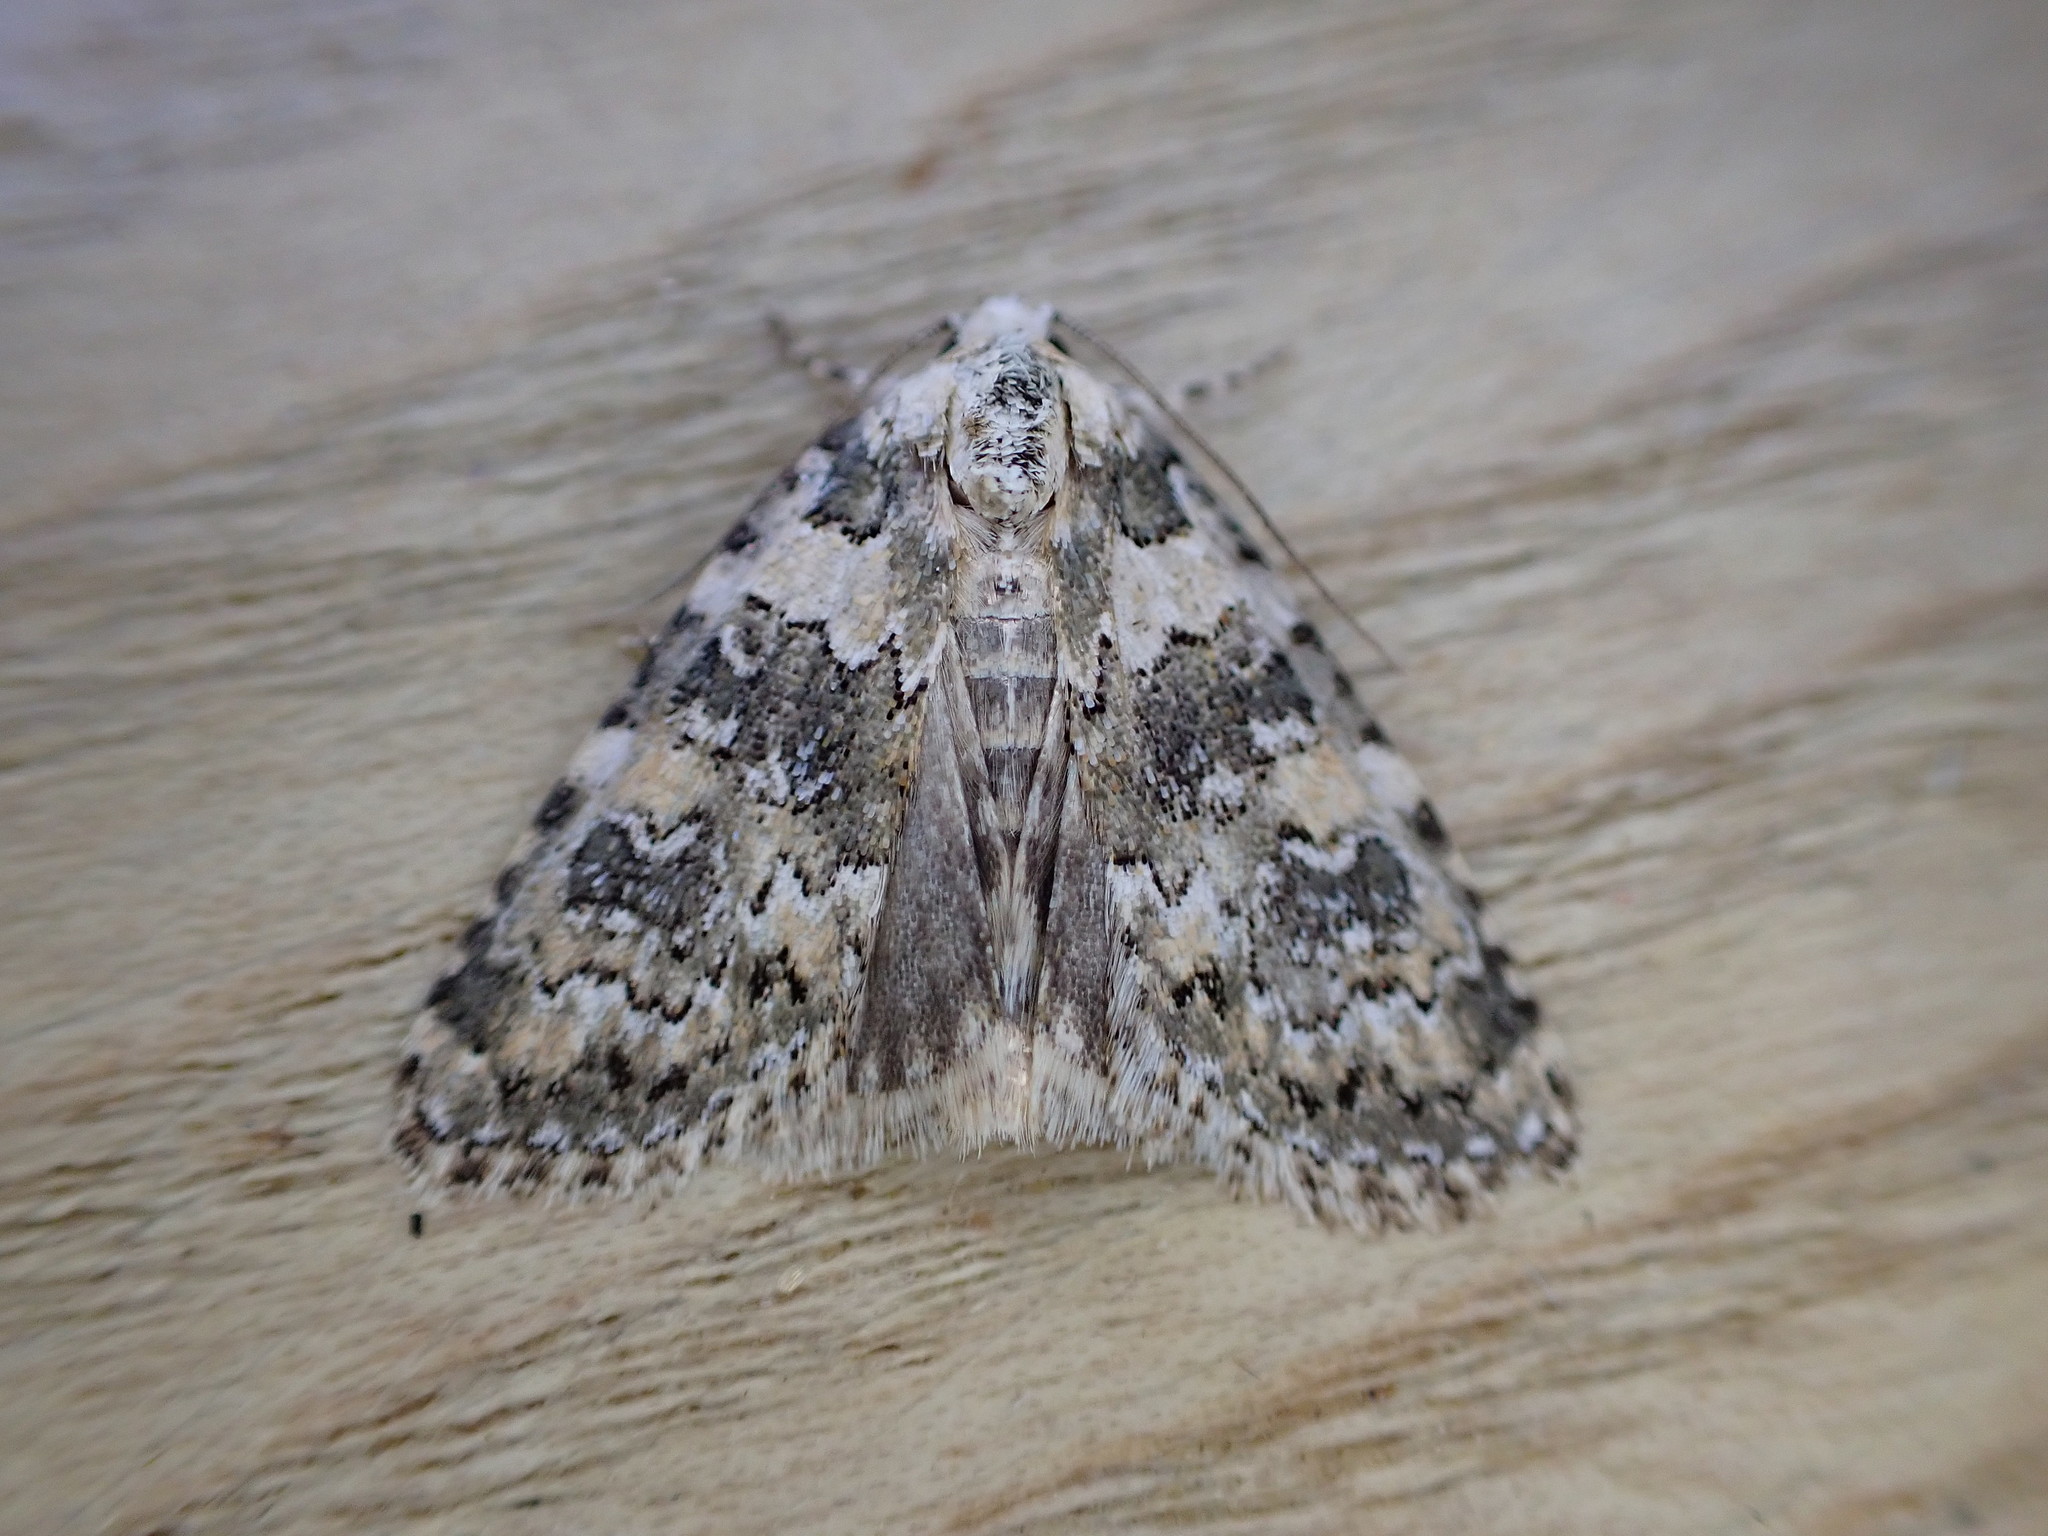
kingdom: Animalia
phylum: Arthropoda
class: Insecta
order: Lepidoptera
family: Noctuidae
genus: Bryophila
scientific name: Bryophila domestica
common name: Marbled beauty
